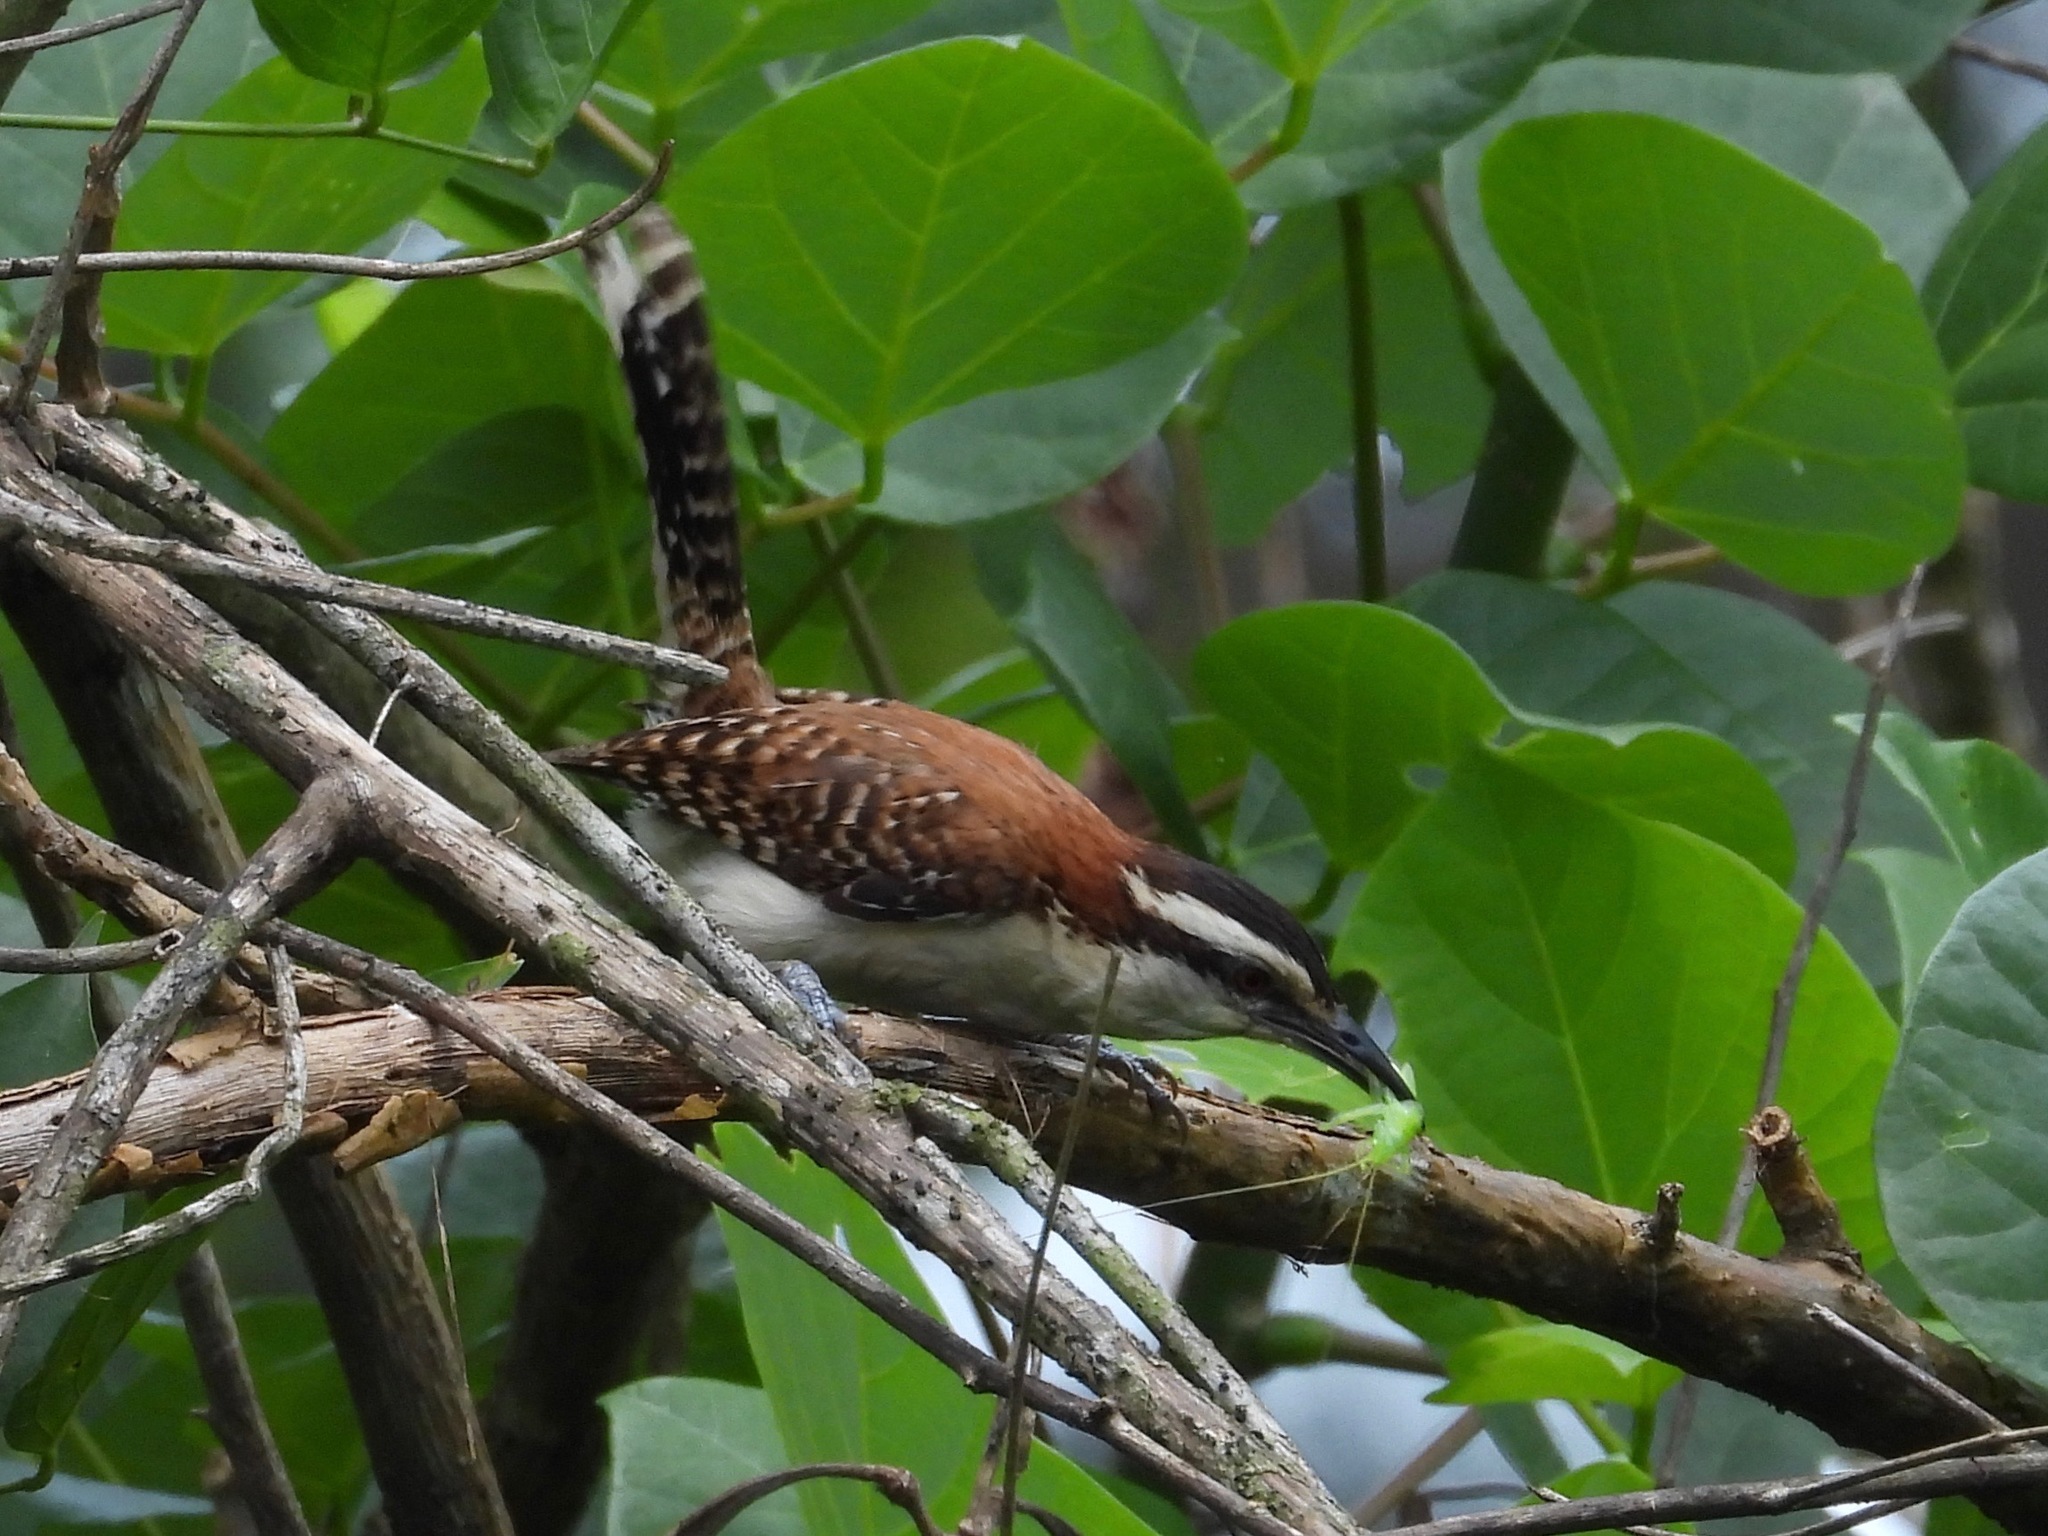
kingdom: Animalia
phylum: Chordata
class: Aves
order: Passeriformes
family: Troglodytidae
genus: Campylorhynchus
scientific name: Campylorhynchus rufinucha
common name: Rufous-naped wren
